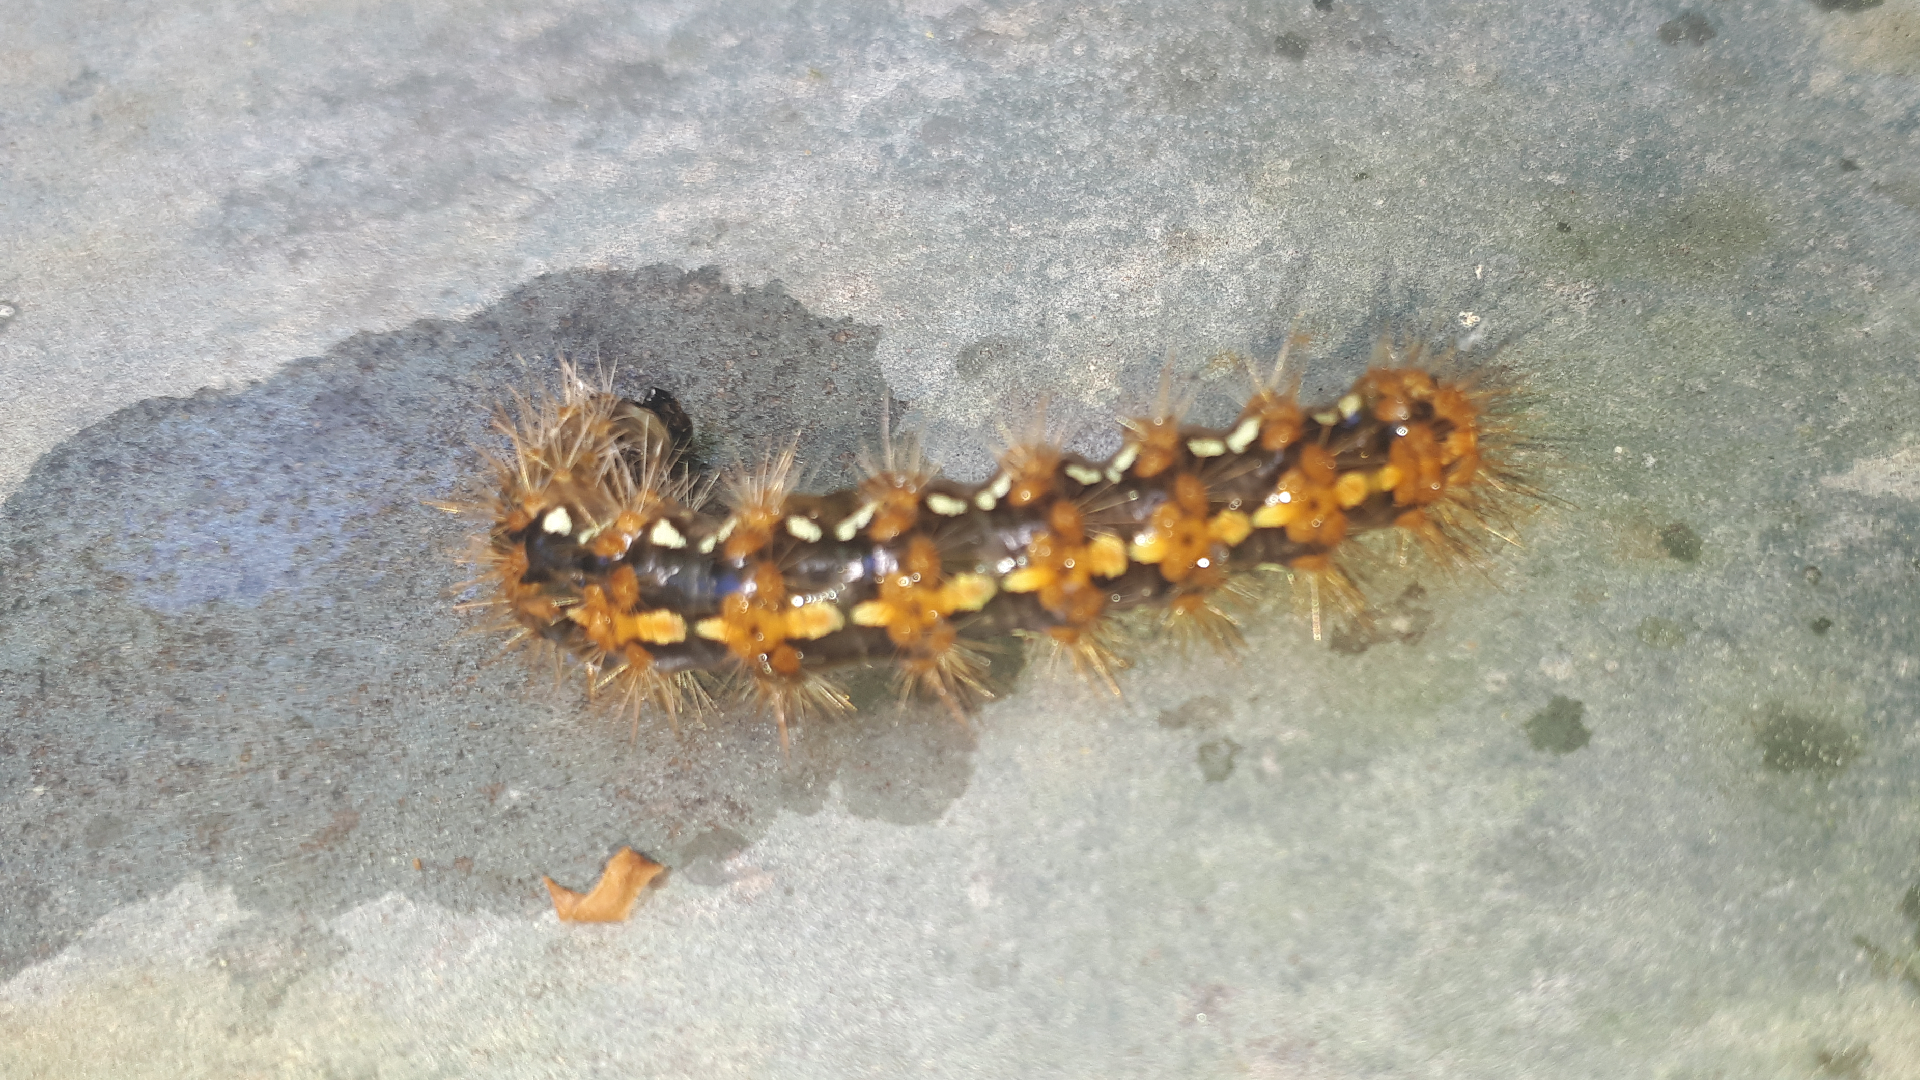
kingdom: Animalia
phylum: Arthropoda
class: Insecta
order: Lepidoptera
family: Erebidae
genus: Euplagia
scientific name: Euplagia quadripunctaria
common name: Jersey tiger
